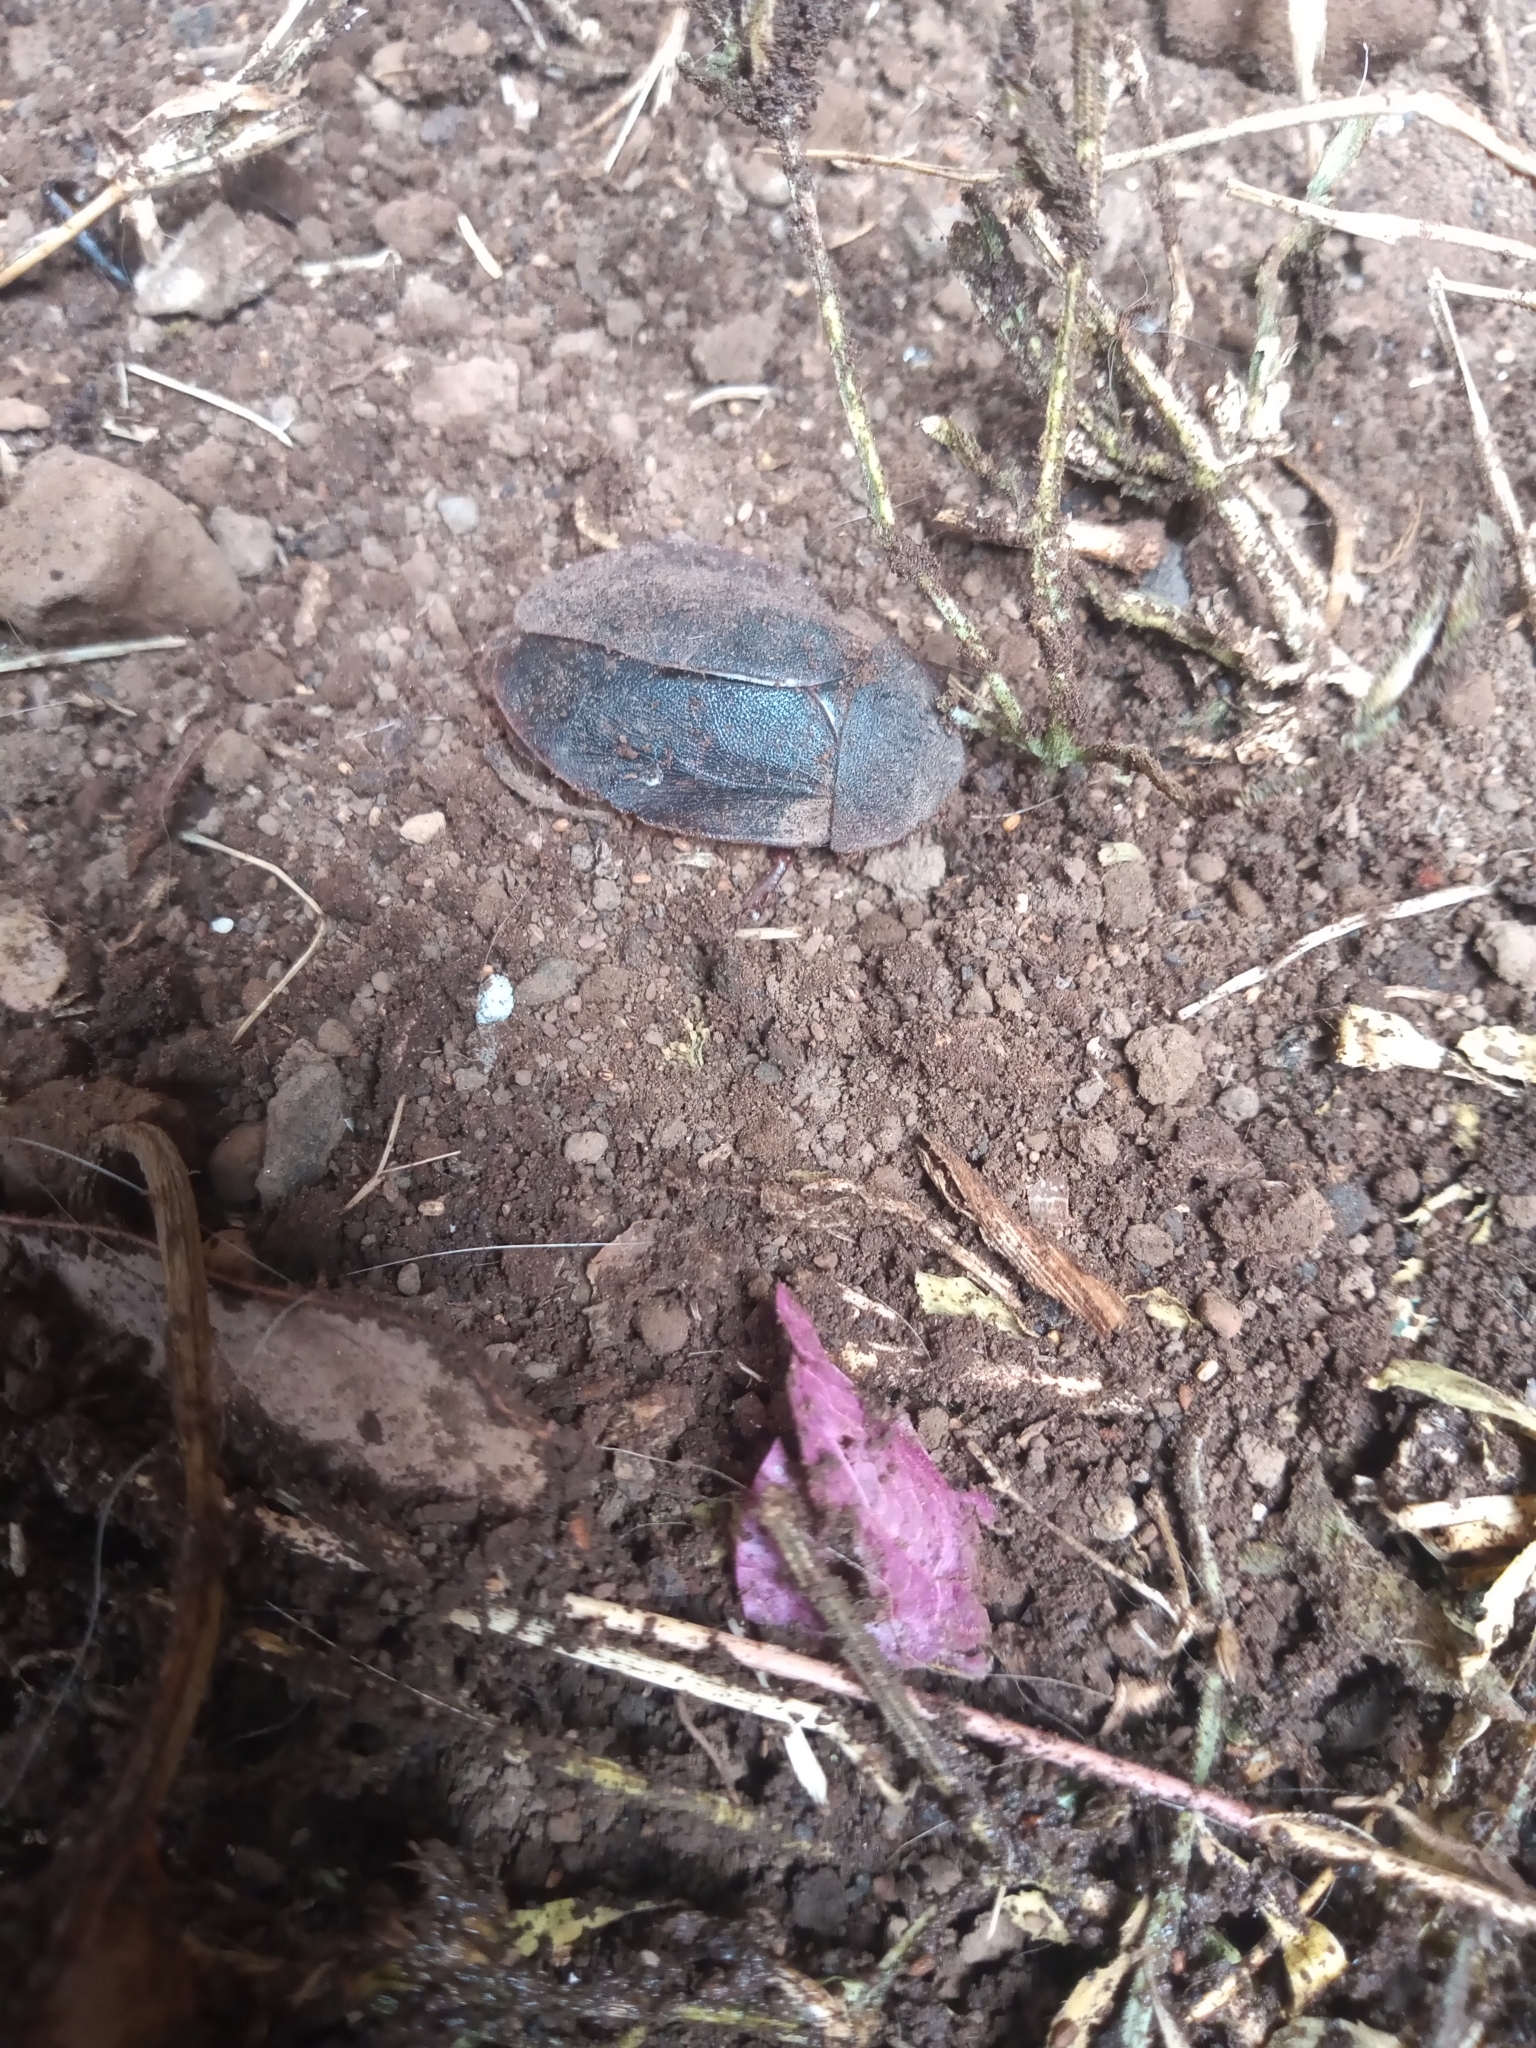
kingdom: Animalia
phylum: Arthropoda
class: Insecta
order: Blattodea
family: Corydiidae
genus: Homoeogamia
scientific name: Homoeogamia mexicana
